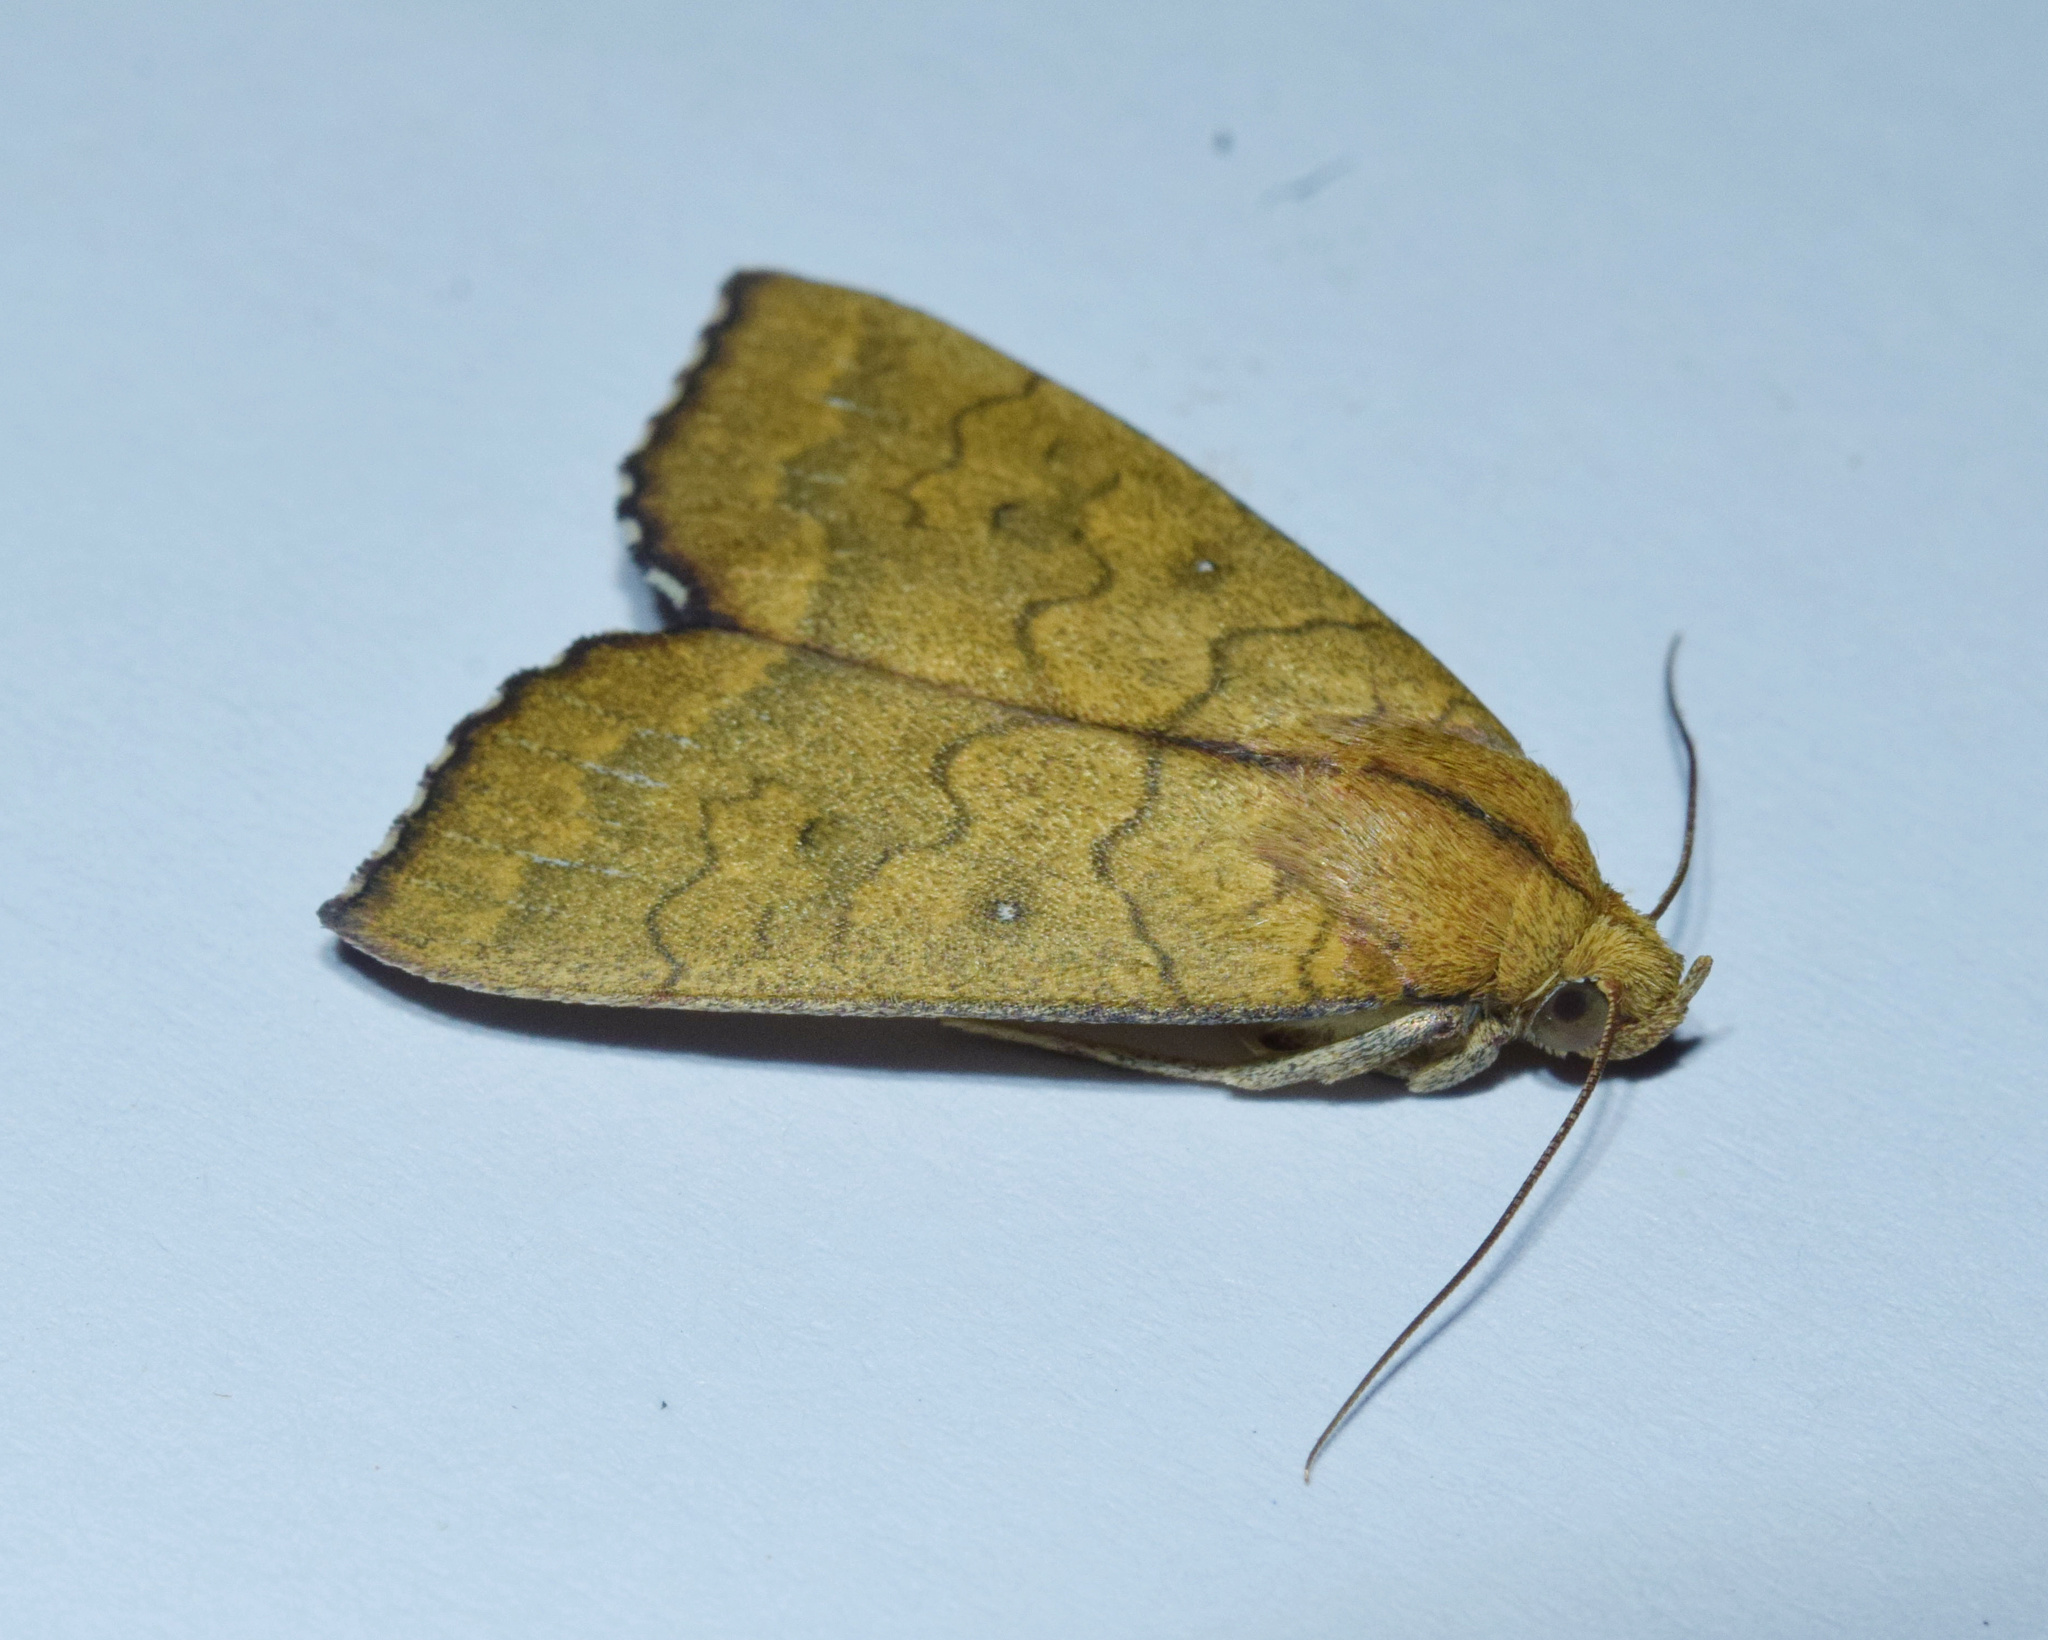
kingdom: Animalia
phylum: Arthropoda
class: Insecta
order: Lepidoptera
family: Erebidae
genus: Anomis
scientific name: Anomis luperca
